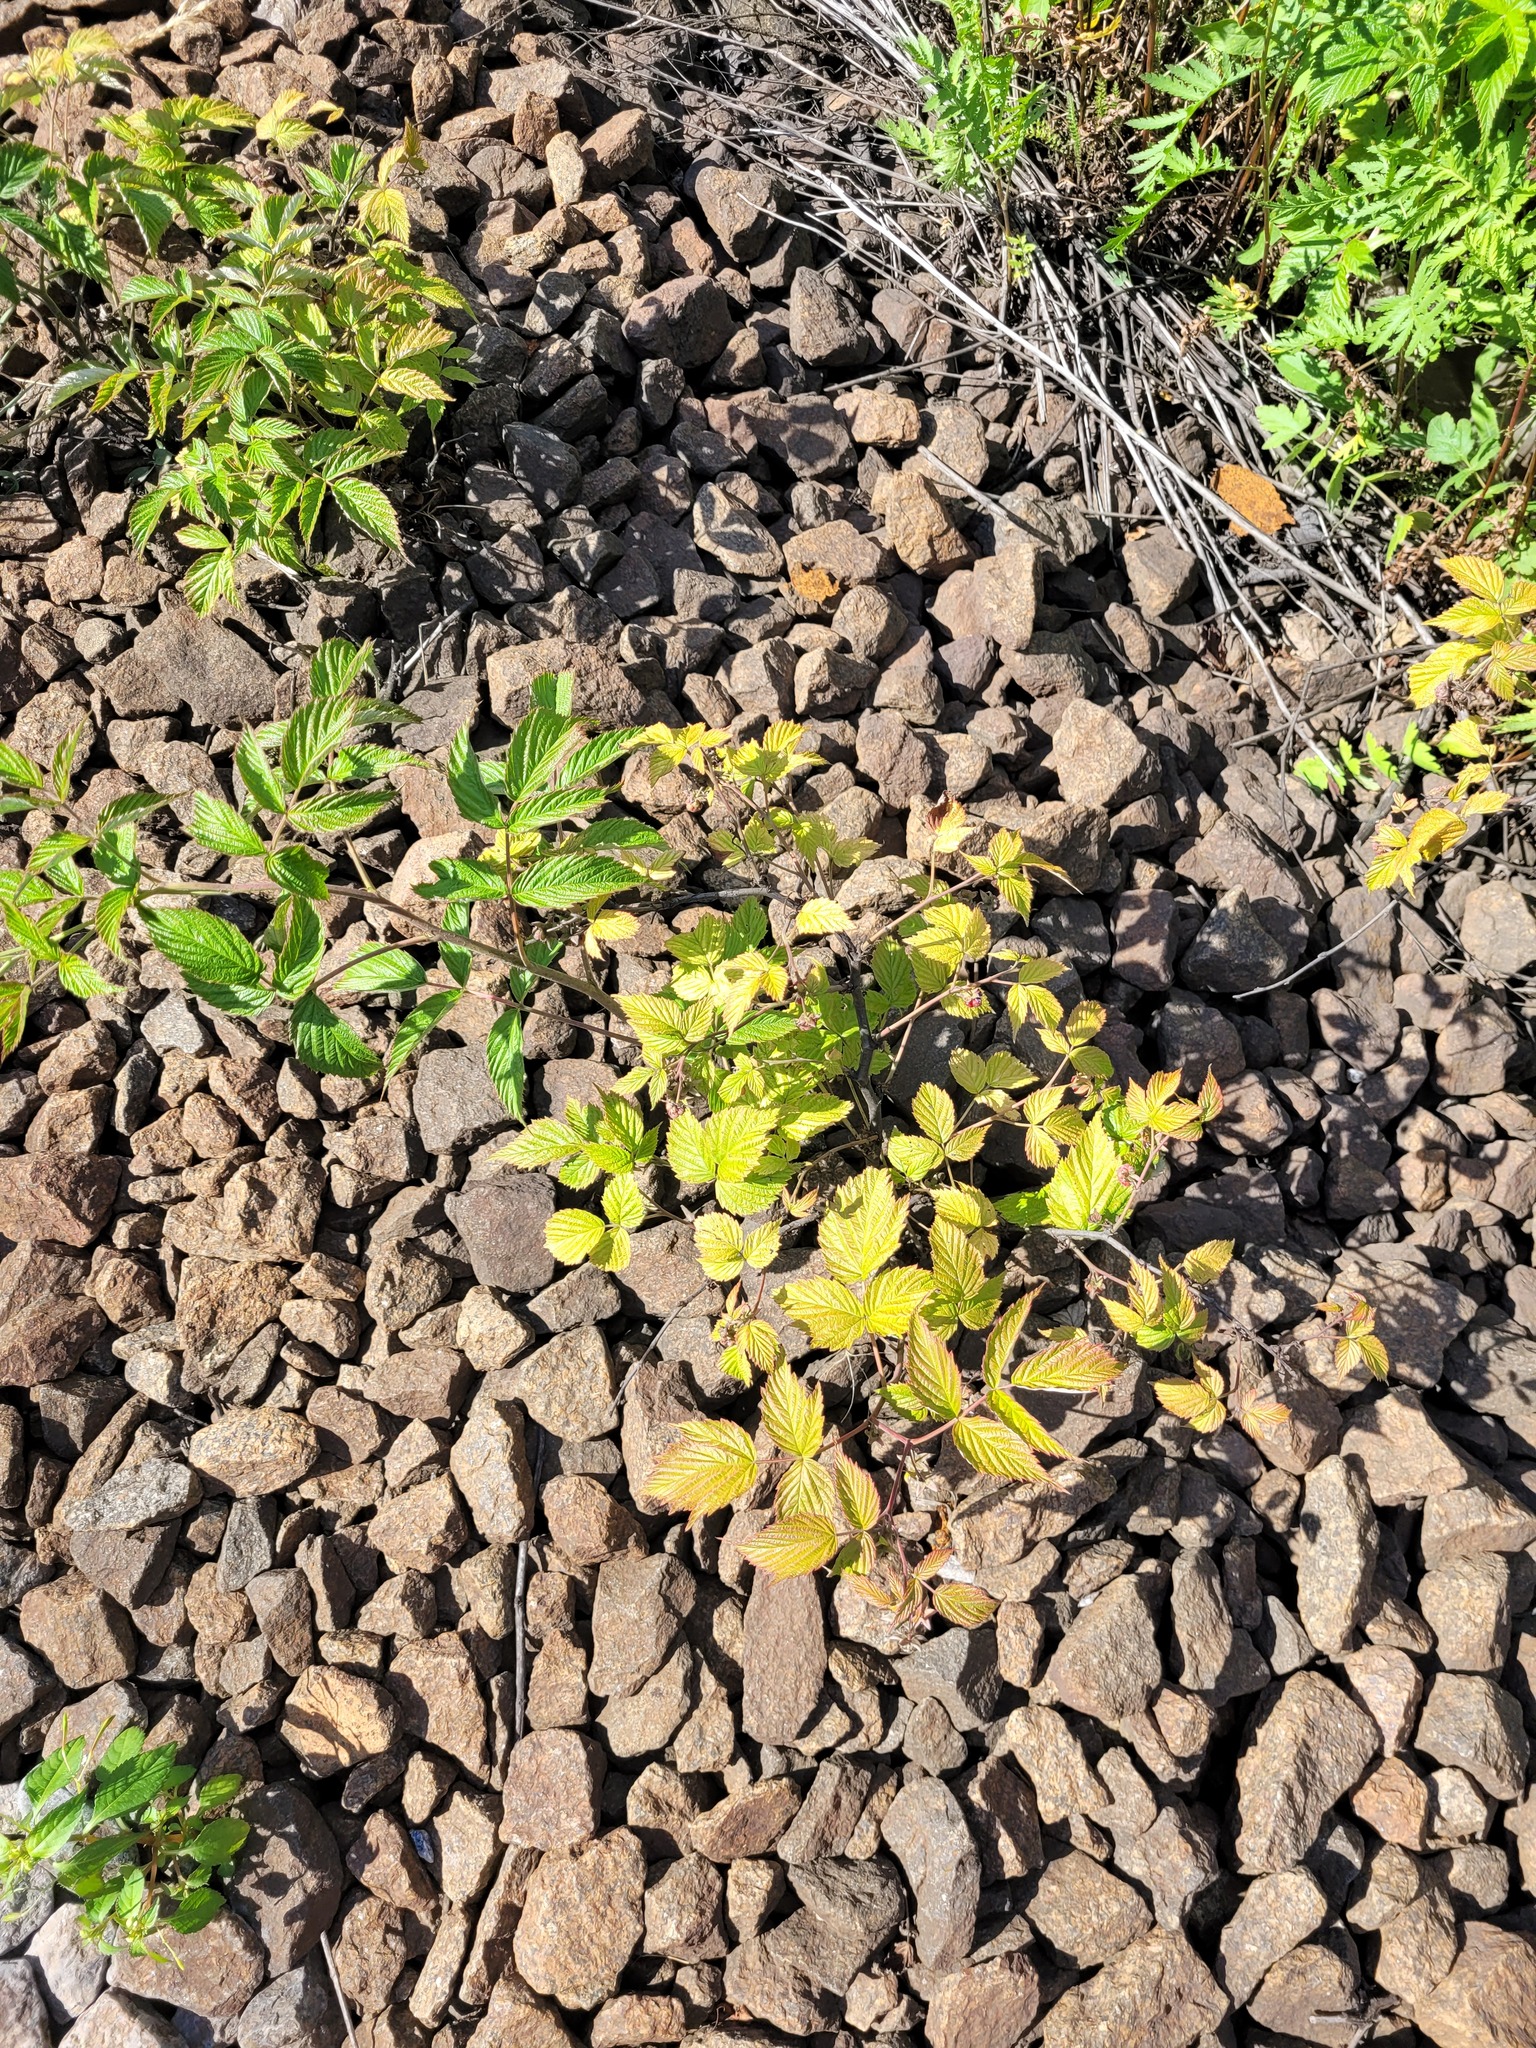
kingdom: Plantae
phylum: Tracheophyta
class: Magnoliopsida
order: Rosales
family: Rosaceae
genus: Rubus
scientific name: Rubus idaeus
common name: Raspberry
